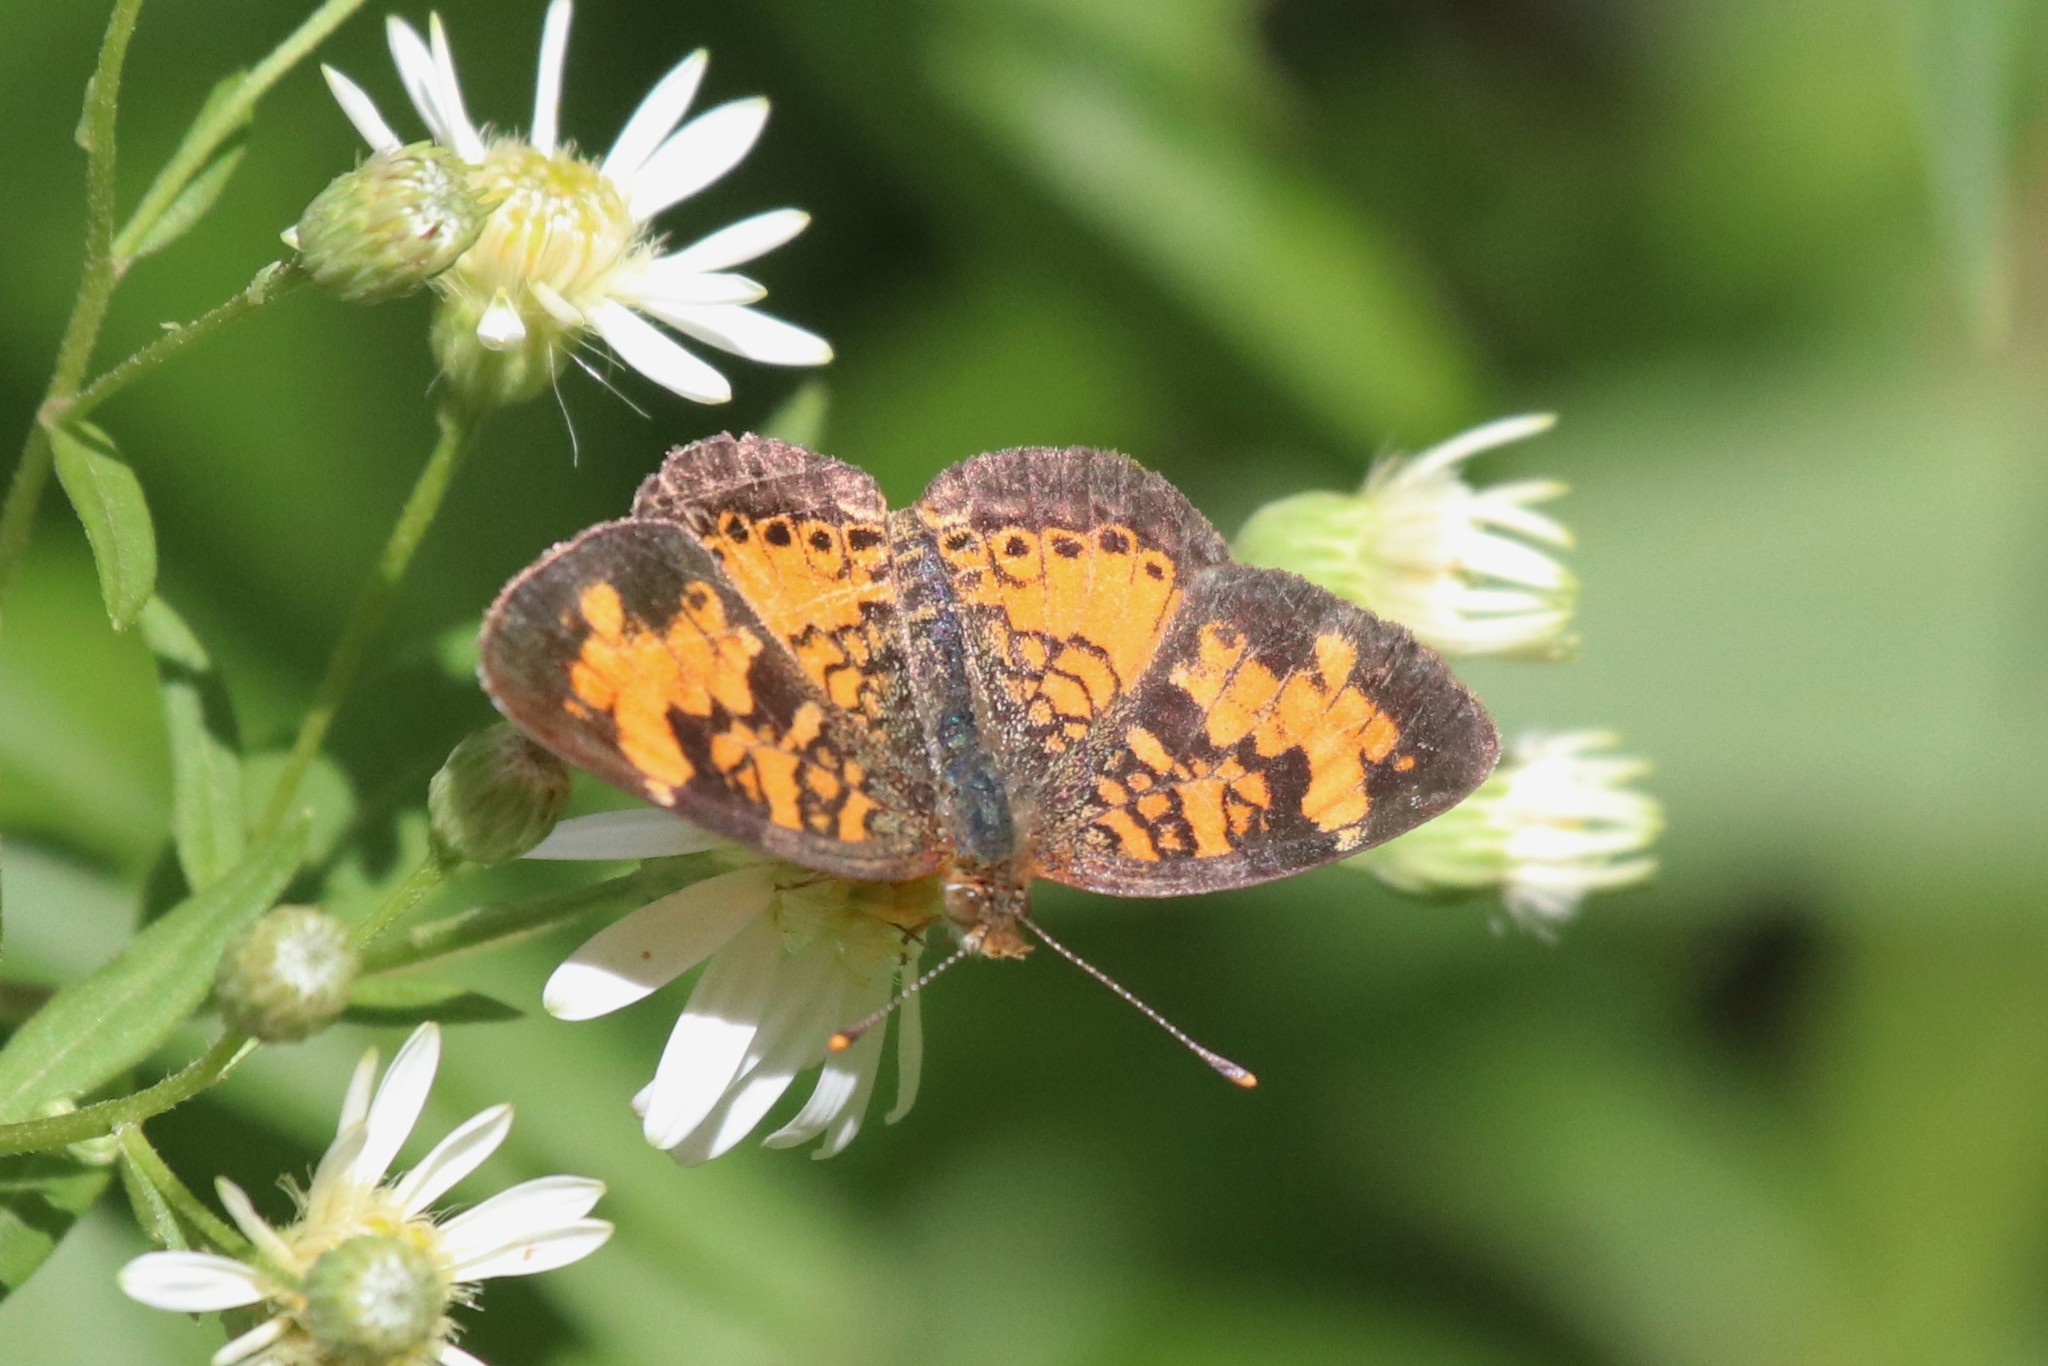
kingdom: Animalia
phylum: Arthropoda
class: Insecta
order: Lepidoptera
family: Nymphalidae
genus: Phyciodes
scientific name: Phyciodes tharos
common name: Pearl crescent
